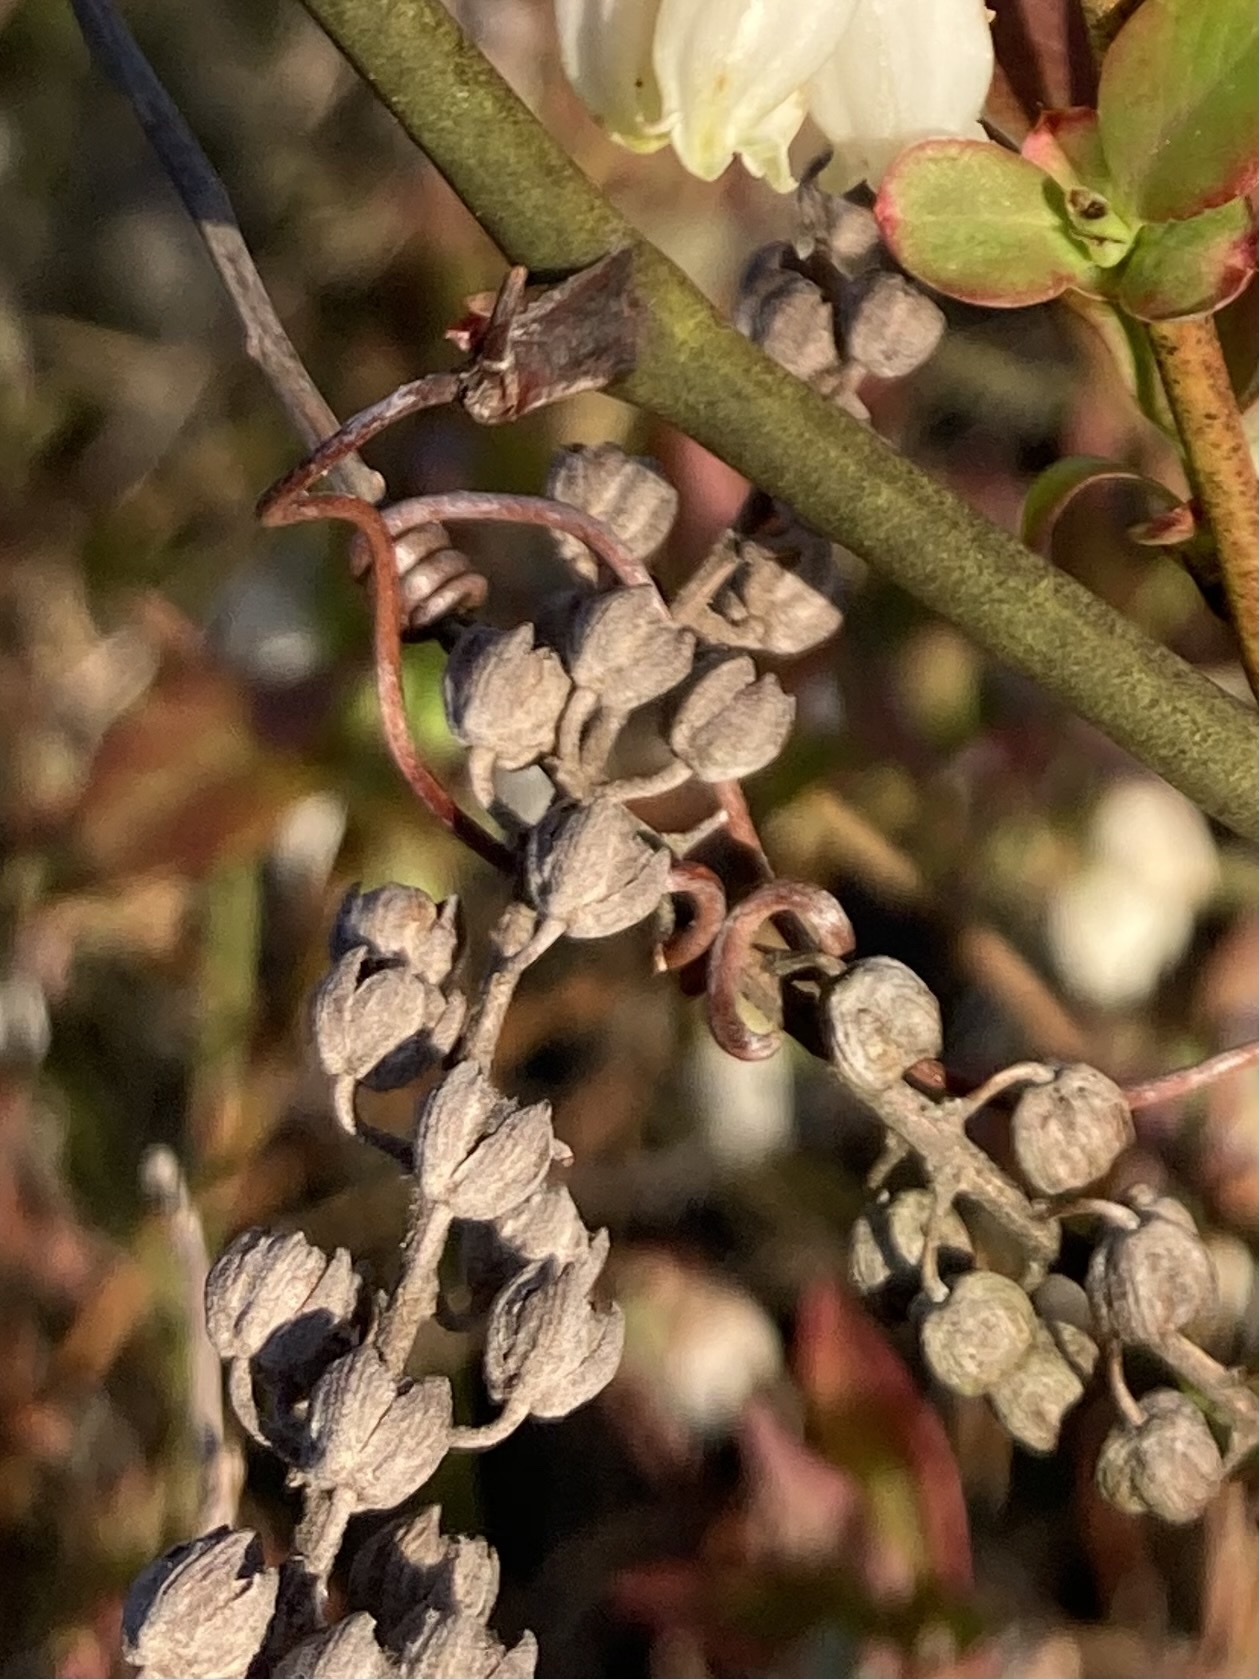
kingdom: Plantae
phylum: Tracheophyta
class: Magnoliopsida
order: Ericales
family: Clethraceae
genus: Clethra
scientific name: Clethra alnifolia
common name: Sweet pepperbush
